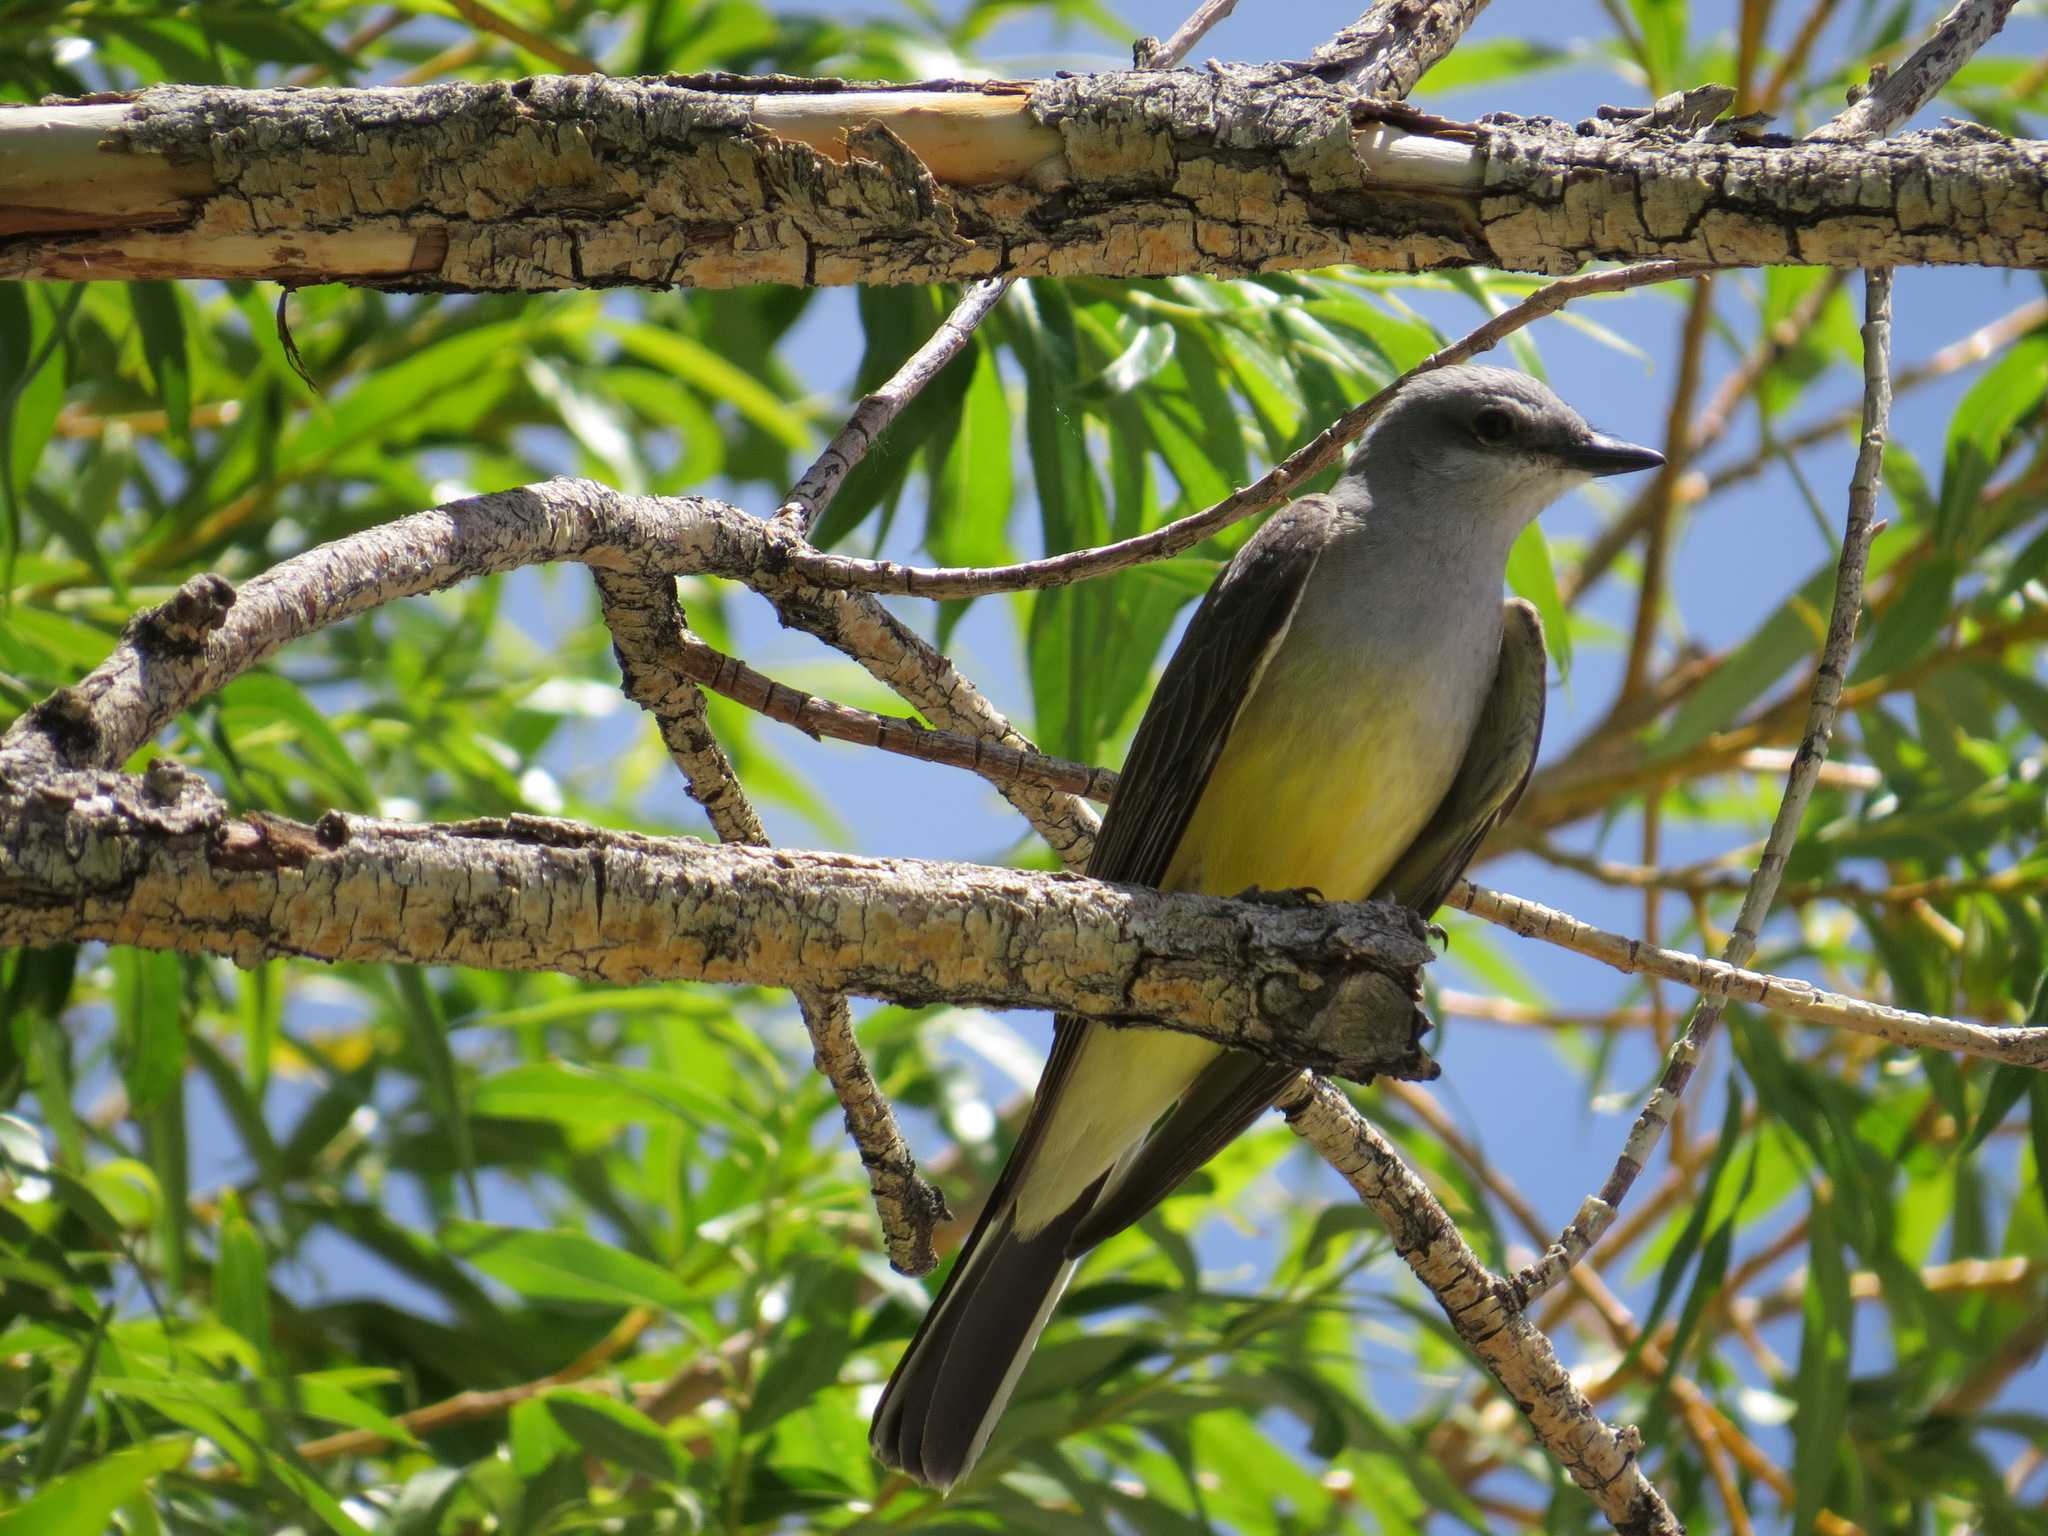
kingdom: Animalia
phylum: Chordata
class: Aves
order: Passeriformes
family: Tyrannidae
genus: Tyrannus
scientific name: Tyrannus verticalis
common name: Western kingbird
